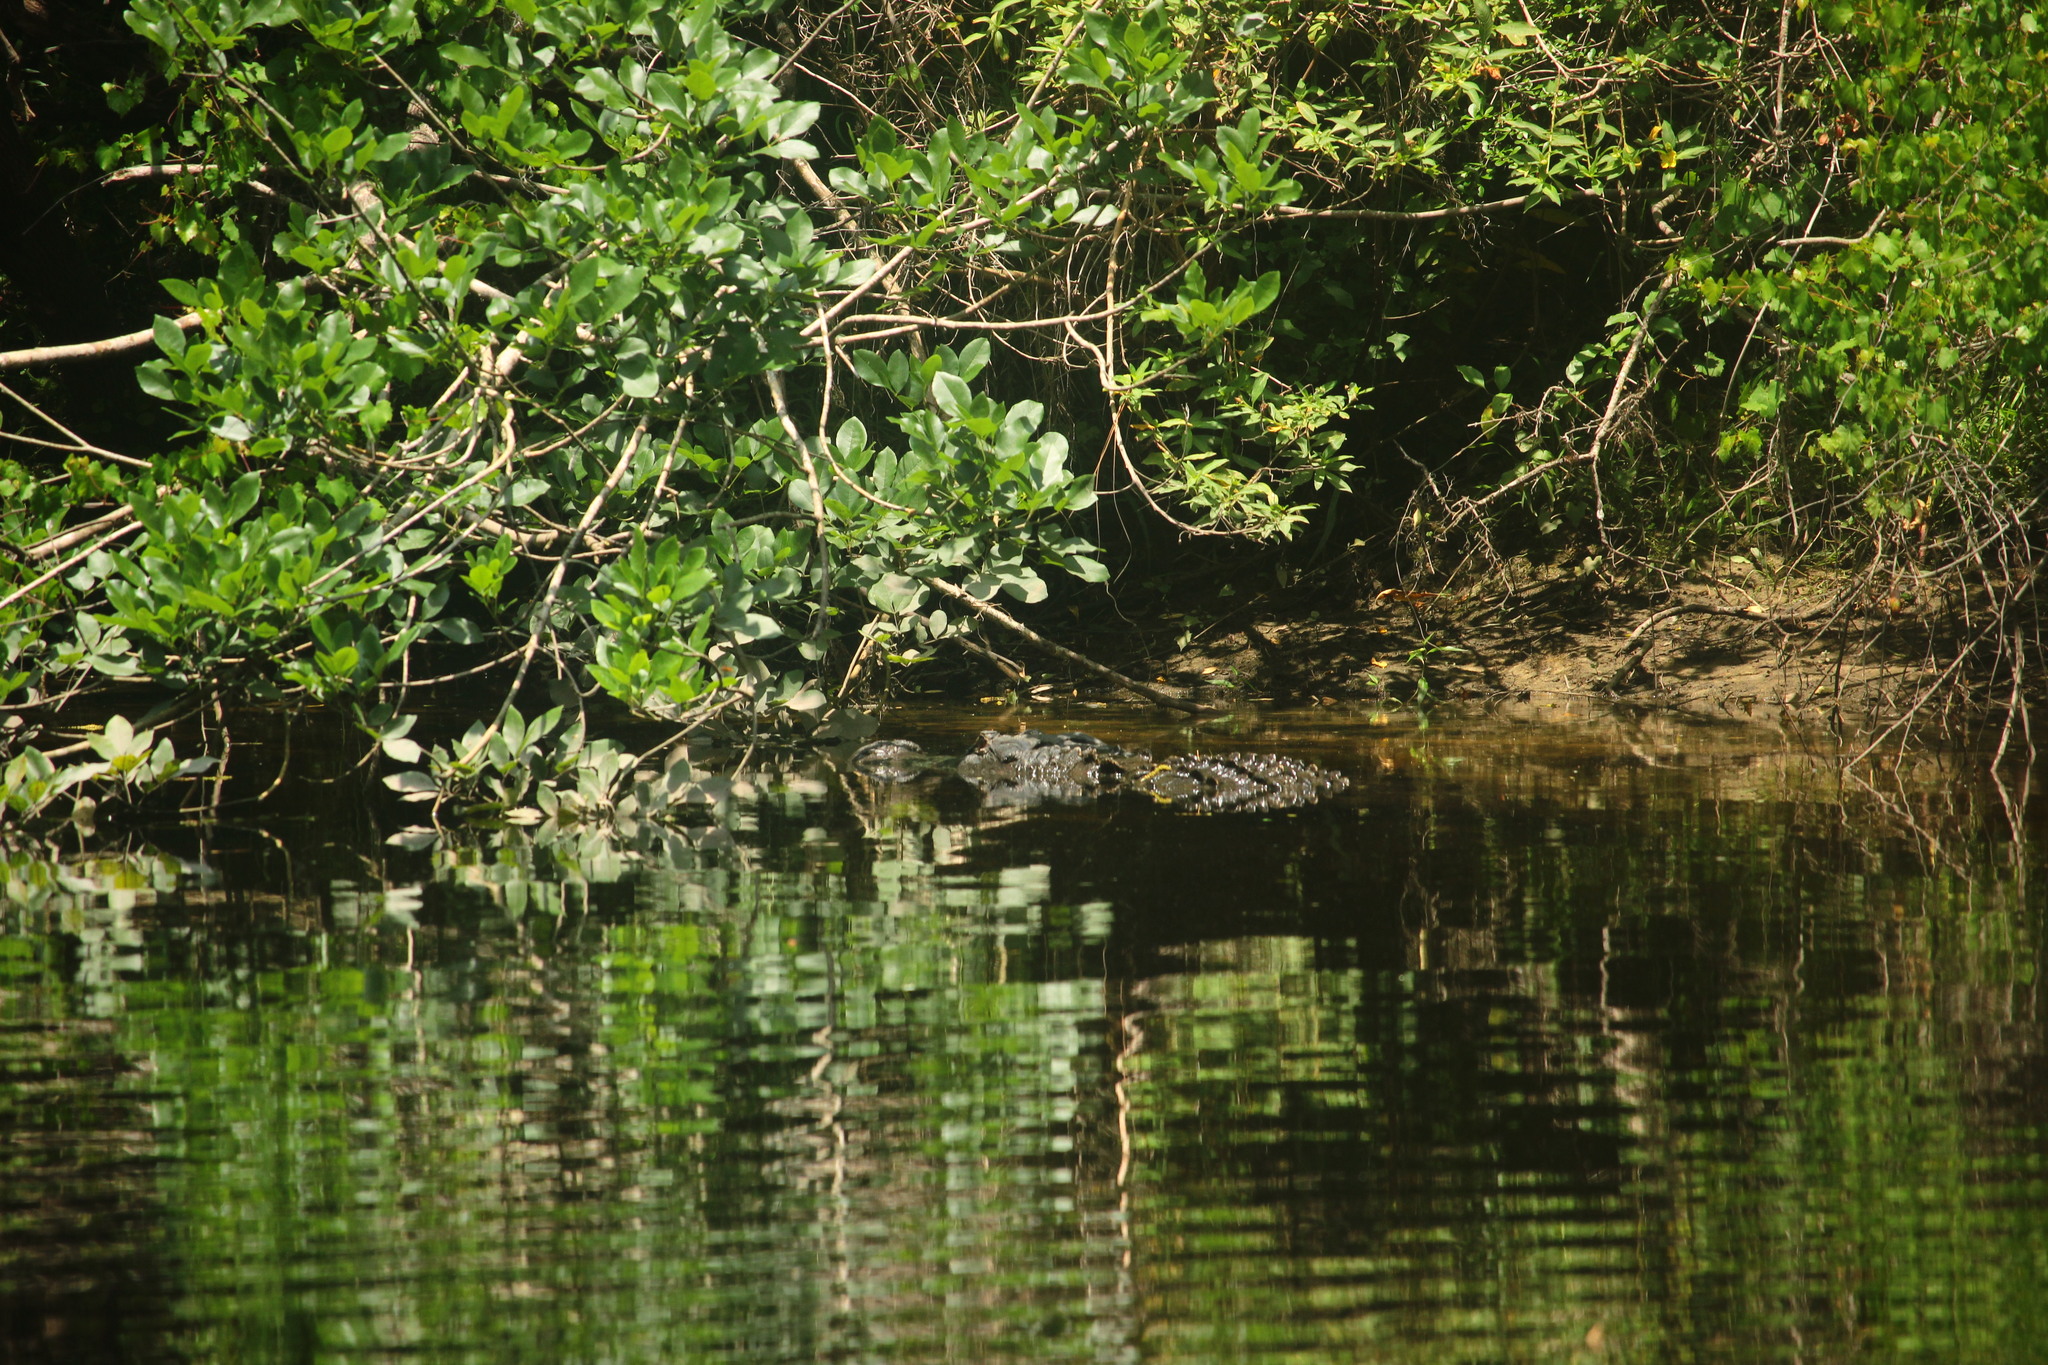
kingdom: Animalia
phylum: Chordata
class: Crocodylia
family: Alligatoridae
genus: Alligator
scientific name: Alligator mississippiensis
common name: American alligator
